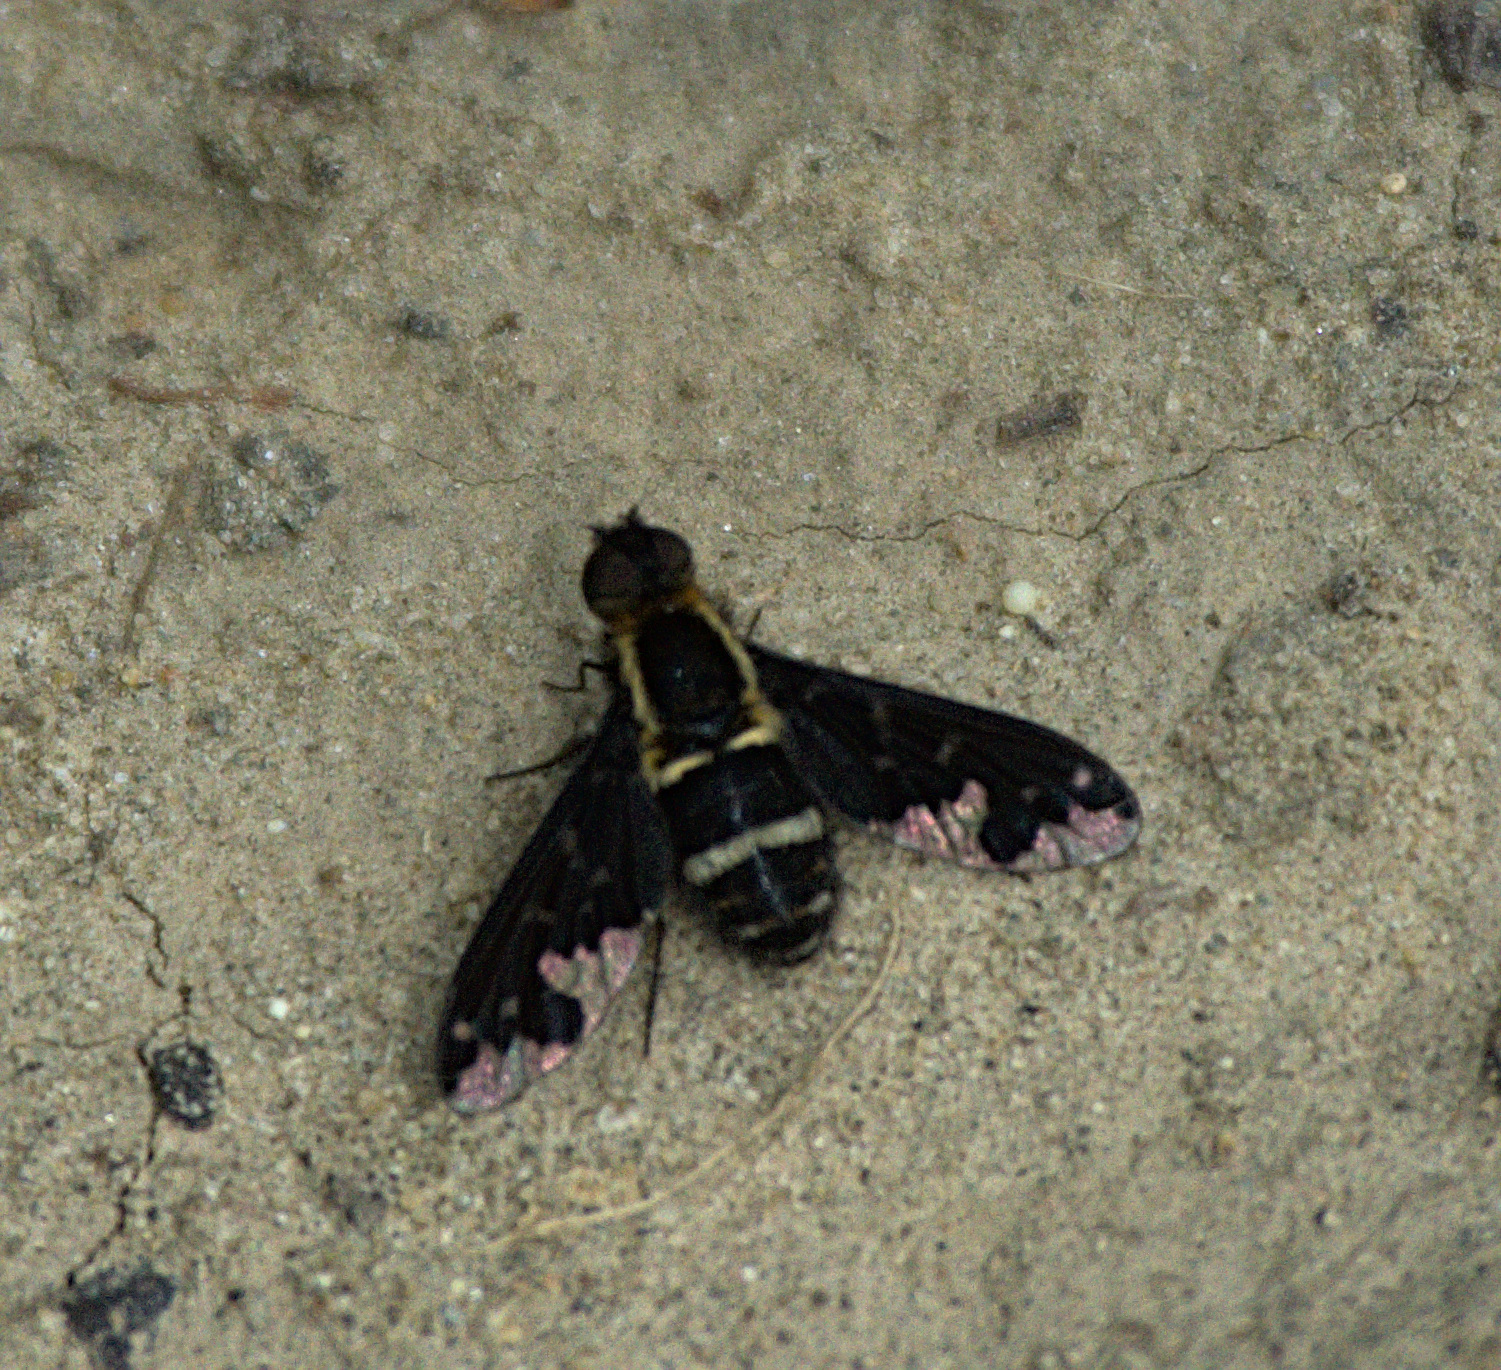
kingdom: Animalia
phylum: Arthropoda
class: Insecta
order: Diptera
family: Bombyliidae
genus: Hemipenthes
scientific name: Hemipenthes maura
